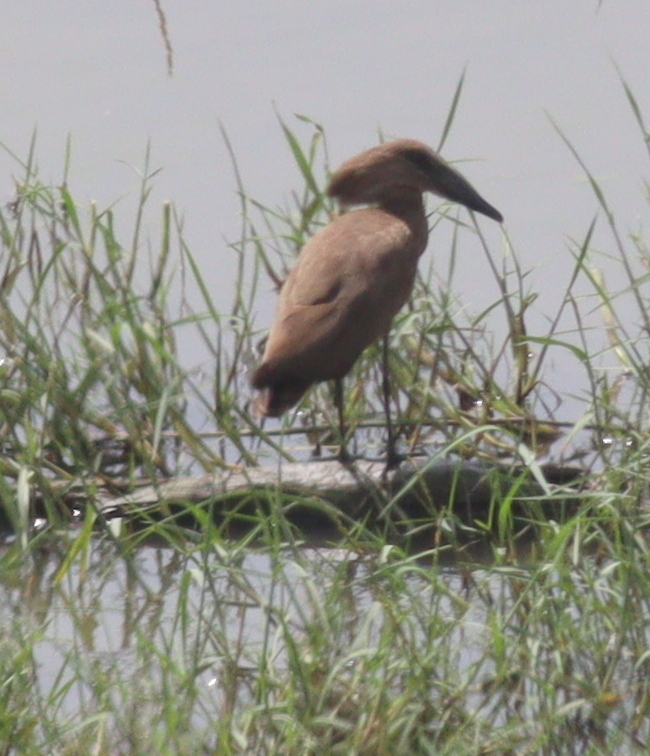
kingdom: Animalia
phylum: Chordata
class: Aves
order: Pelecaniformes
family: Scopidae
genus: Scopus
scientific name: Scopus umbretta
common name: Hamerkop
